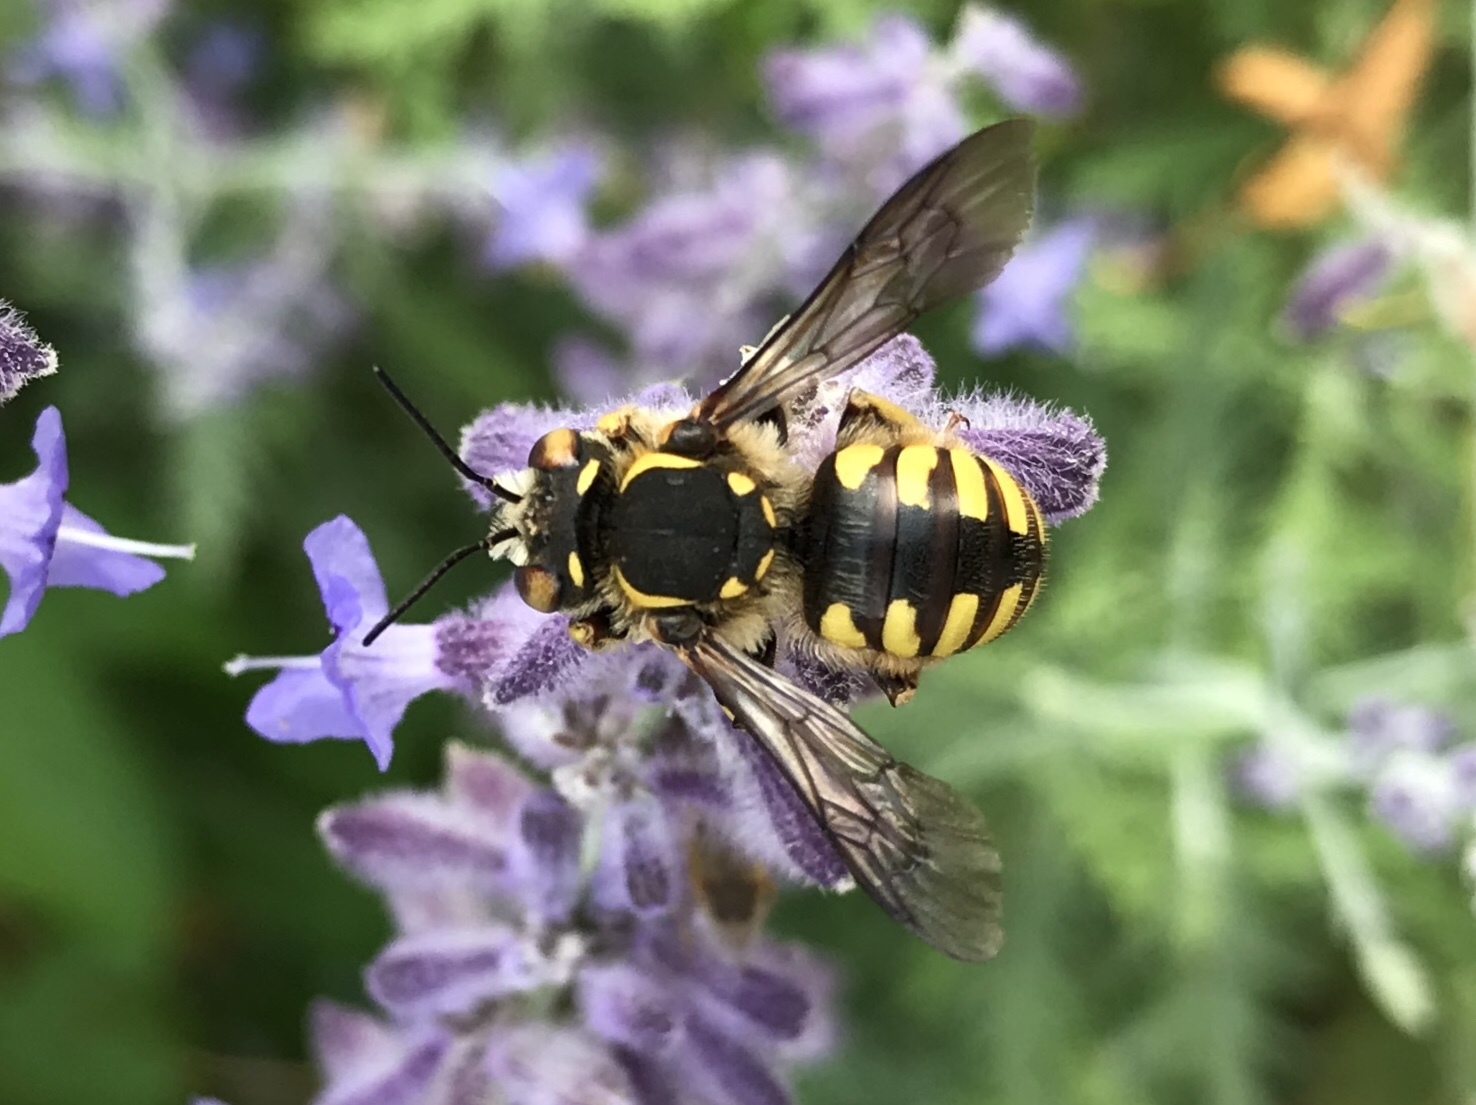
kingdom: Animalia
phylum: Arthropoda
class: Insecta
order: Hymenoptera
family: Megachilidae
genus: Anthidium
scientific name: Anthidium florentinum
